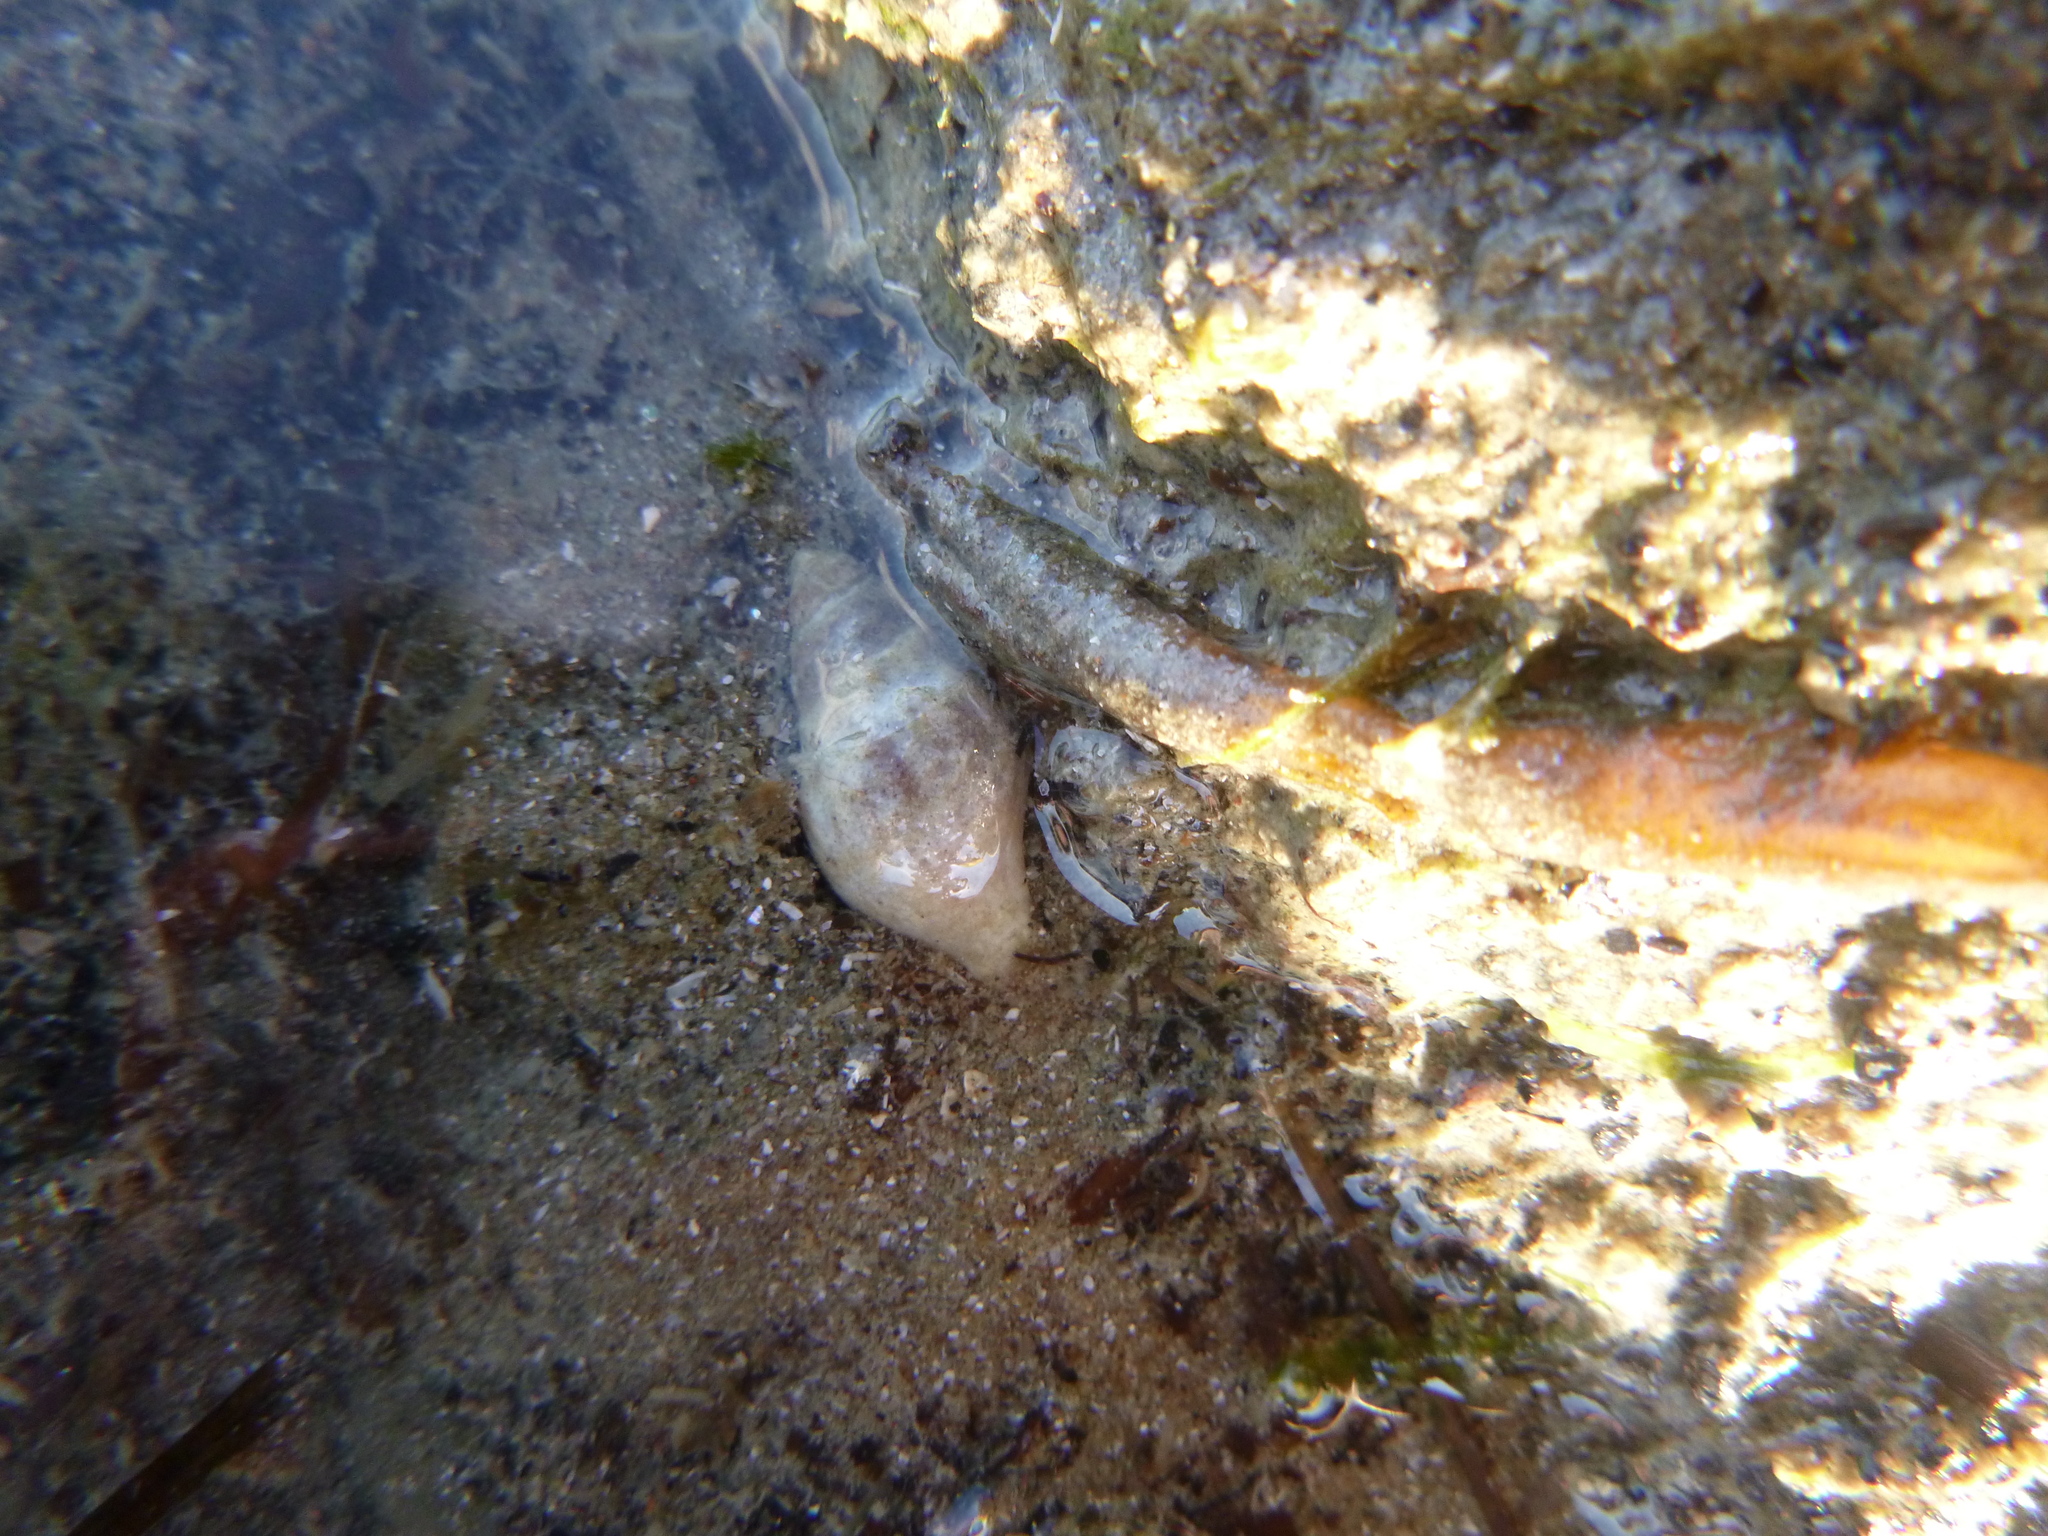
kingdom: Animalia
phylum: Mollusca
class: Gastropoda
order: Neogastropoda
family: Cominellidae
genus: Cominella
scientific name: Cominella glandiformis
